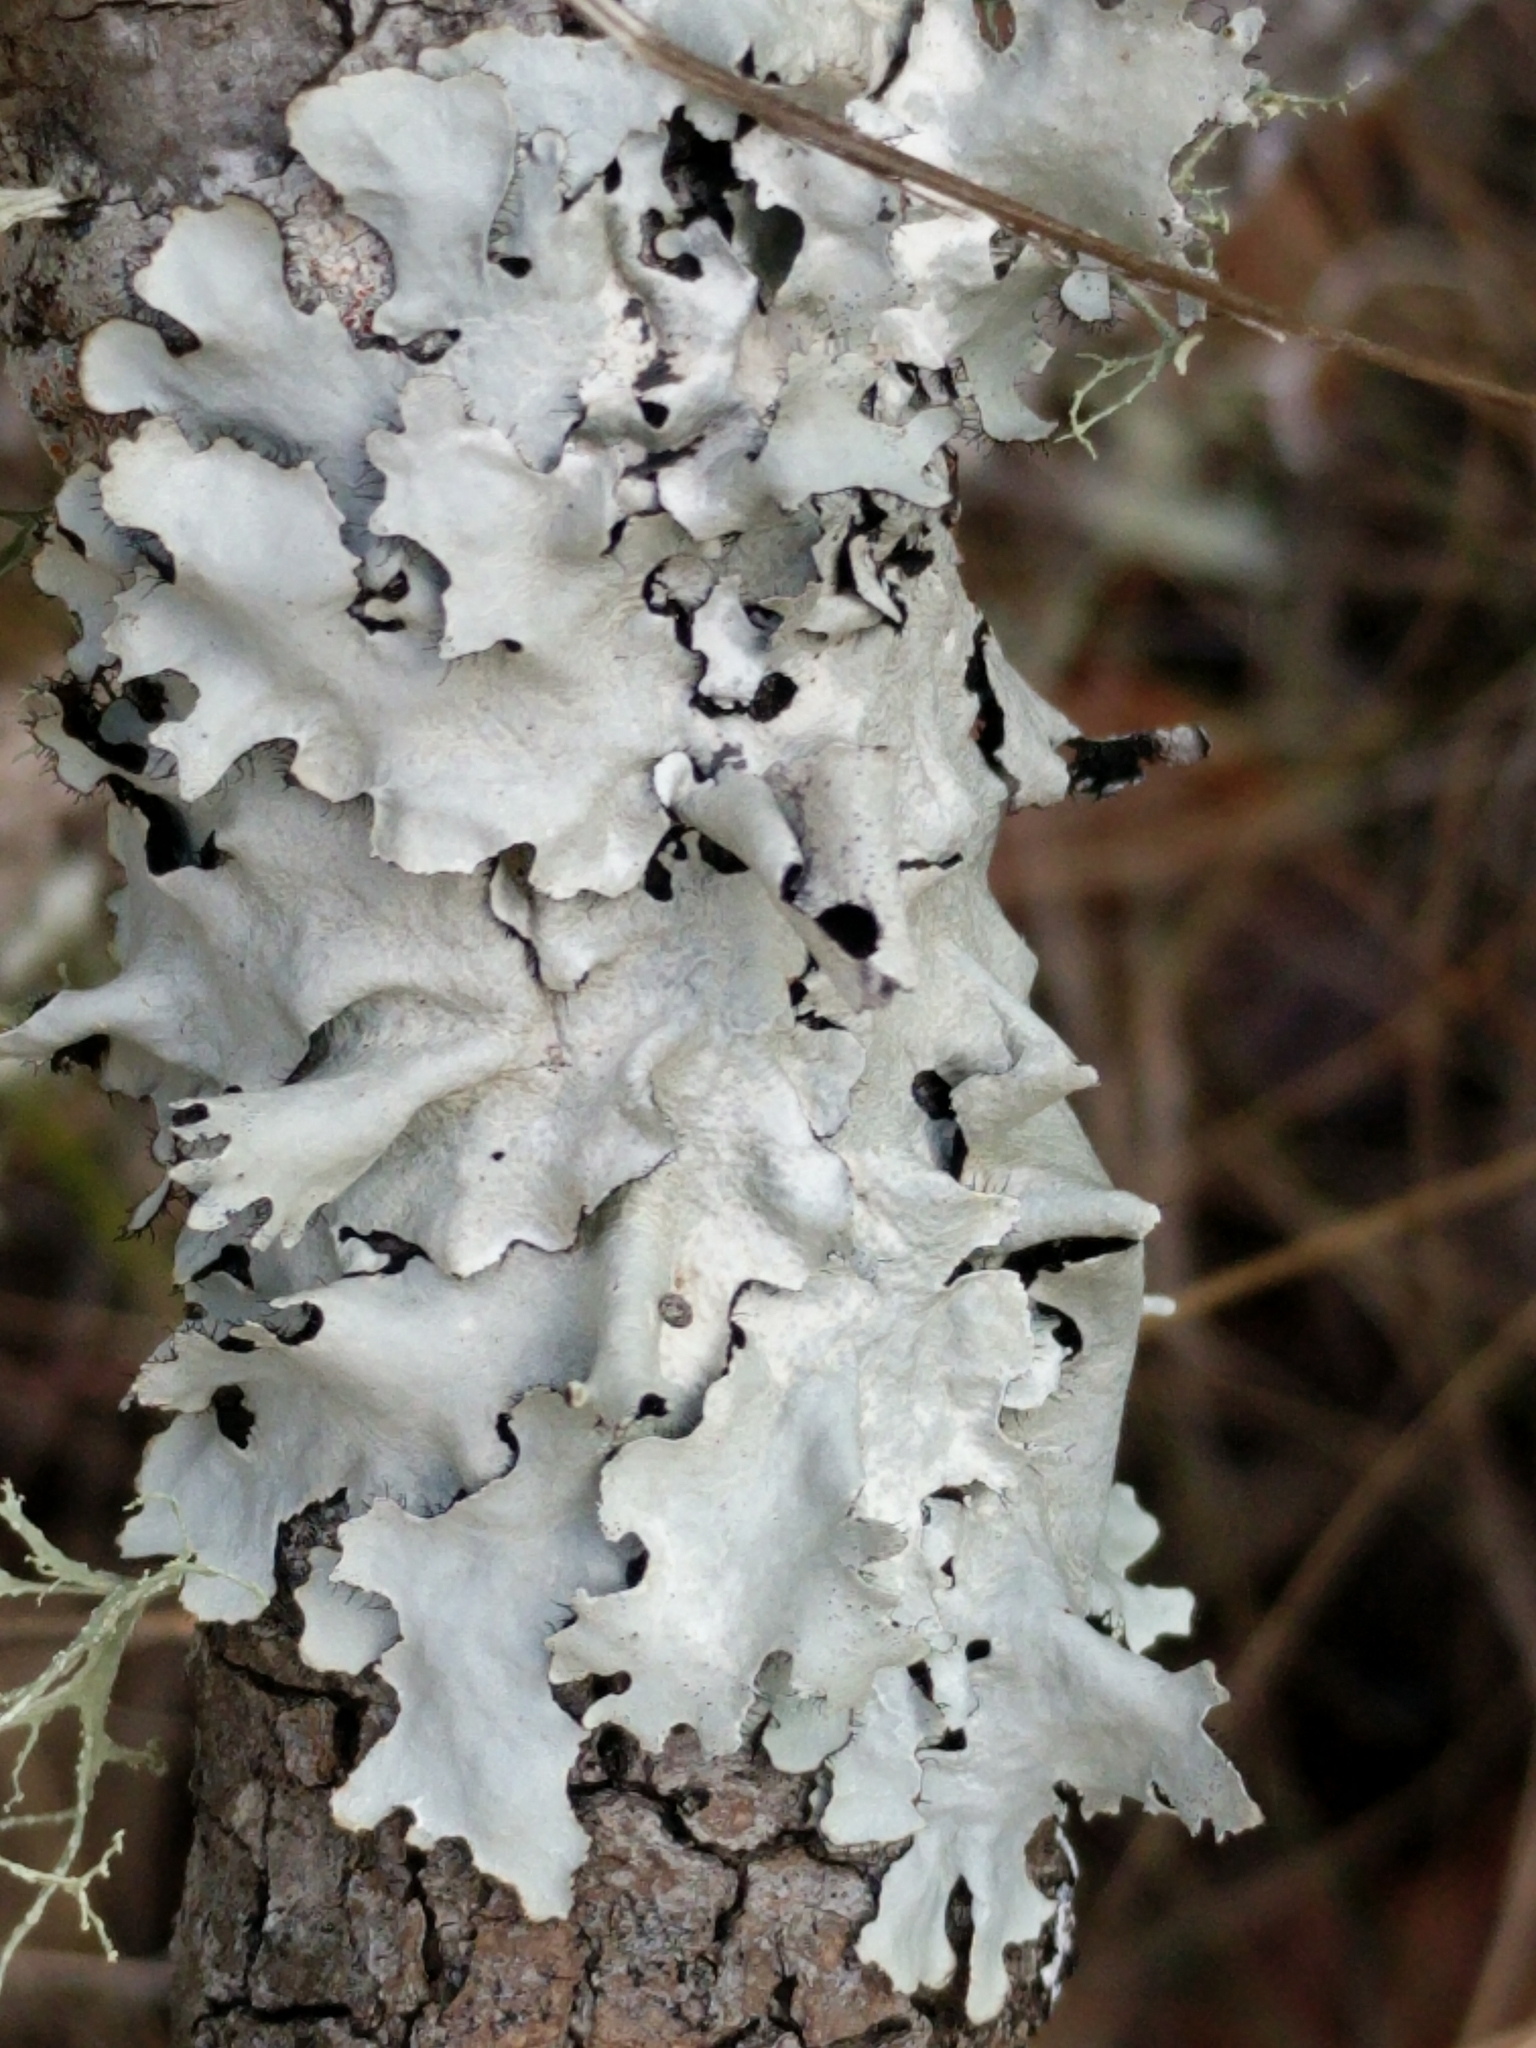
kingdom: Fungi
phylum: Ascomycota
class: Lecanoromycetes
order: Lecanorales
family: Parmeliaceae
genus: Parmotrema
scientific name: Parmotrema reticulatum
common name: Black sheet lichen
